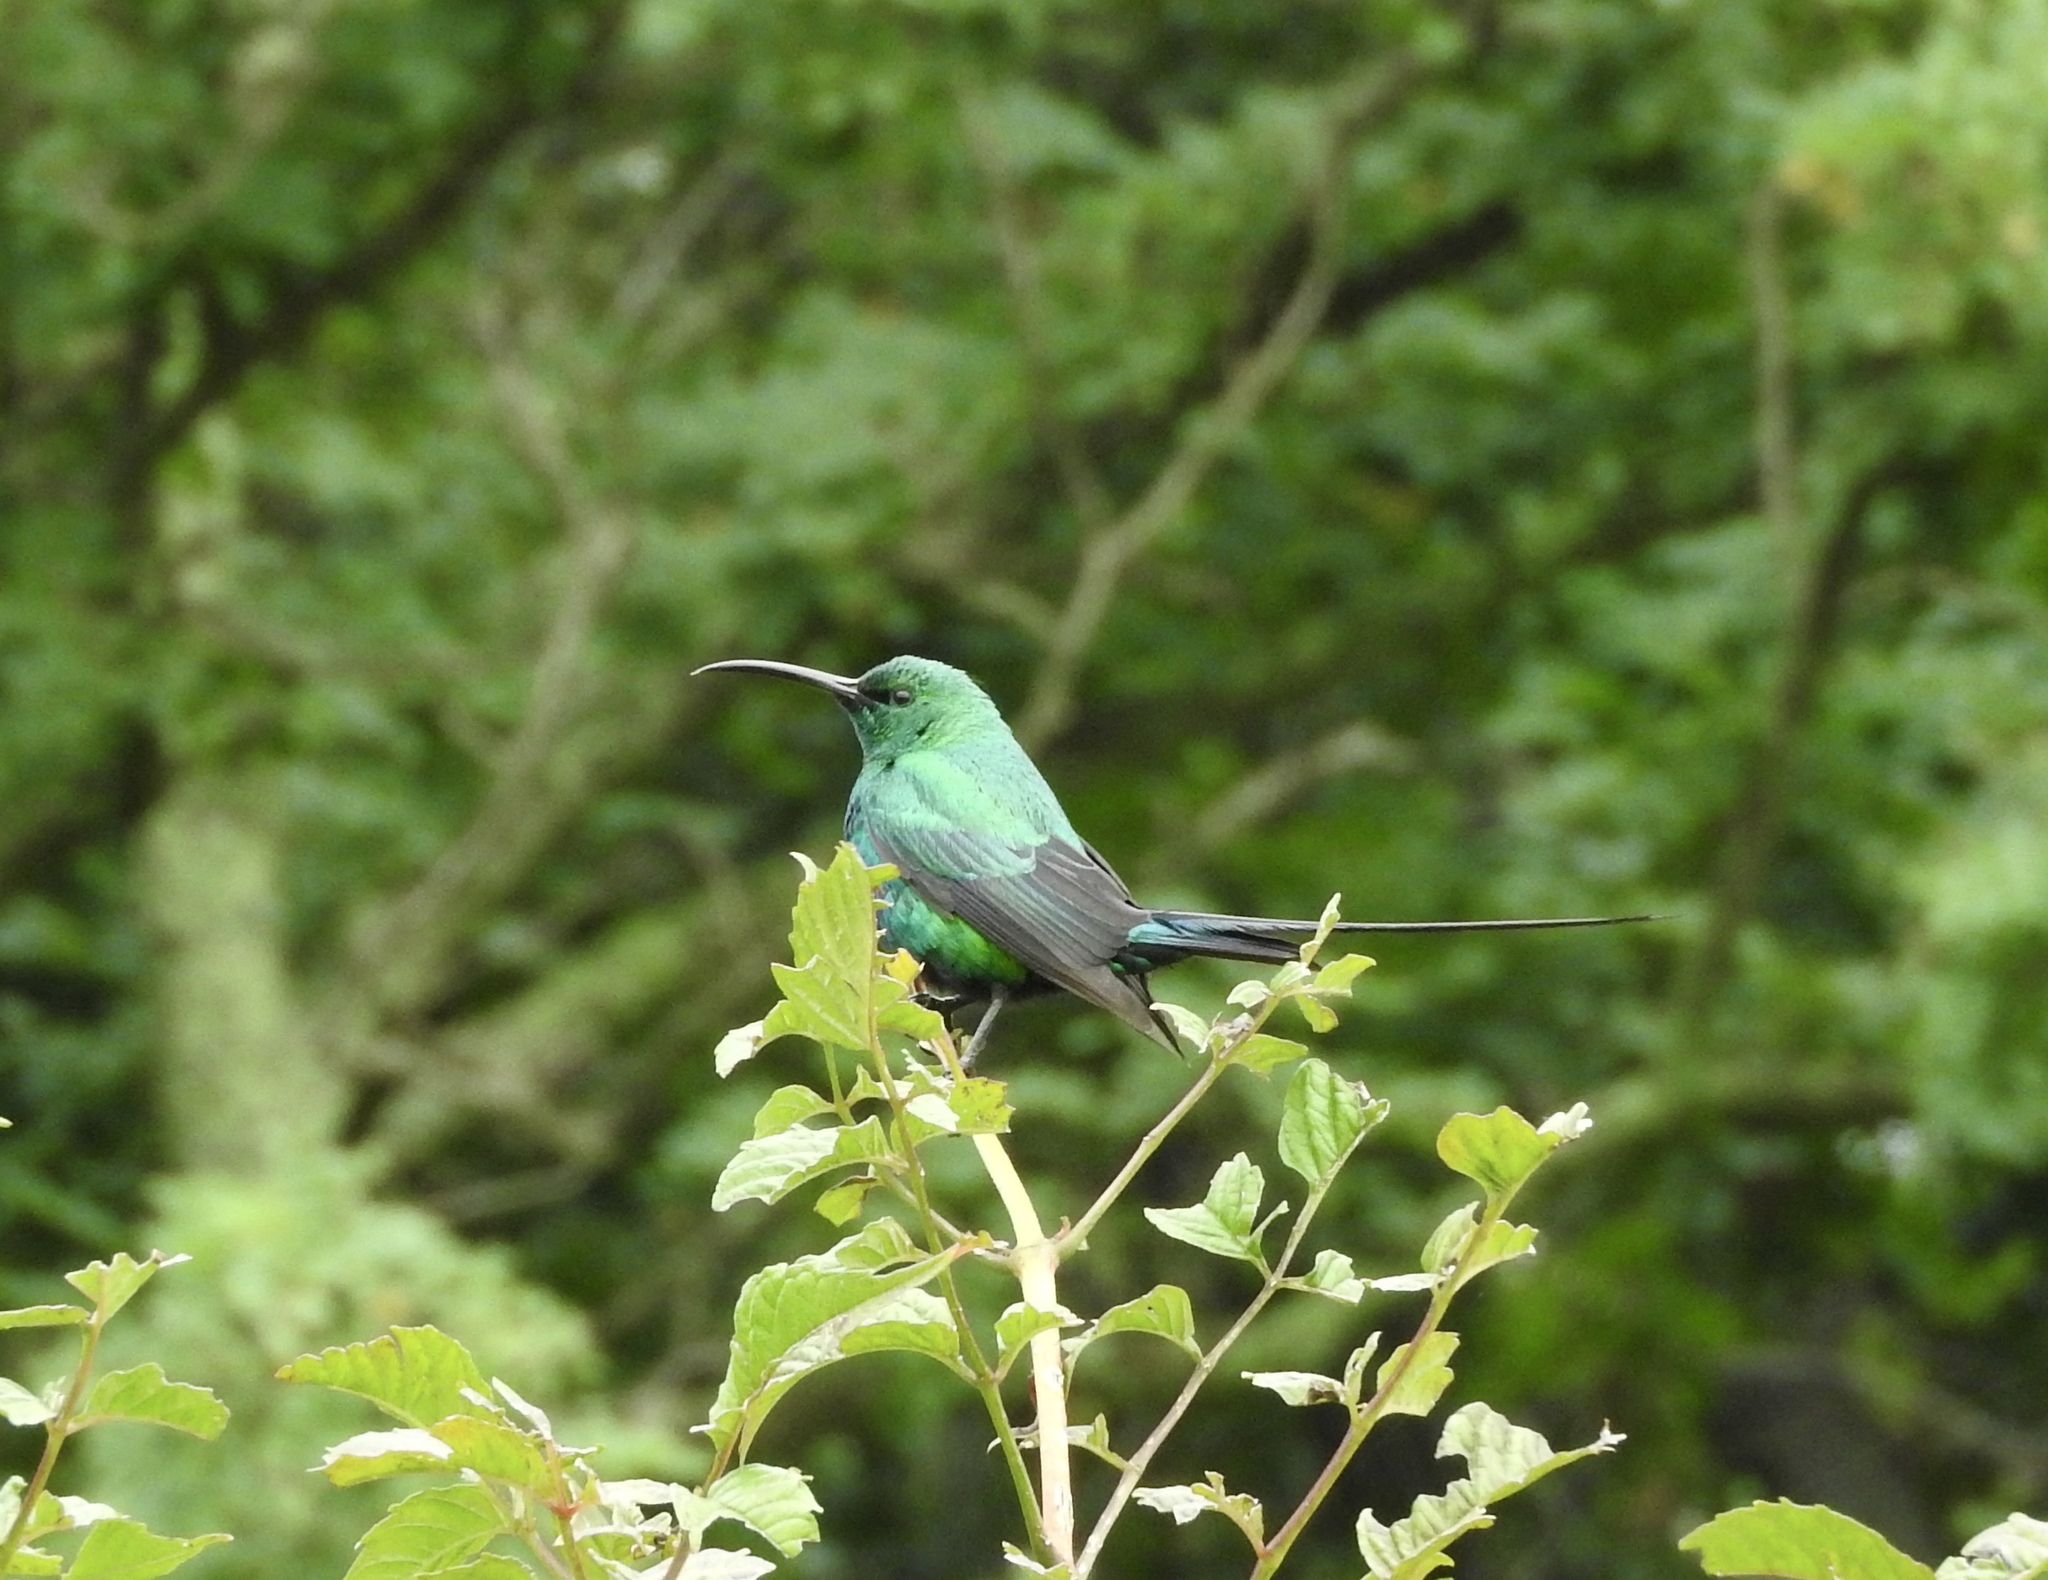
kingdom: Animalia
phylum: Chordata
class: Aves
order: Passeriformes
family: Nectariniidae
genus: Nectarinia
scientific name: Nectarinia famosa
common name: Malachite sunbird
